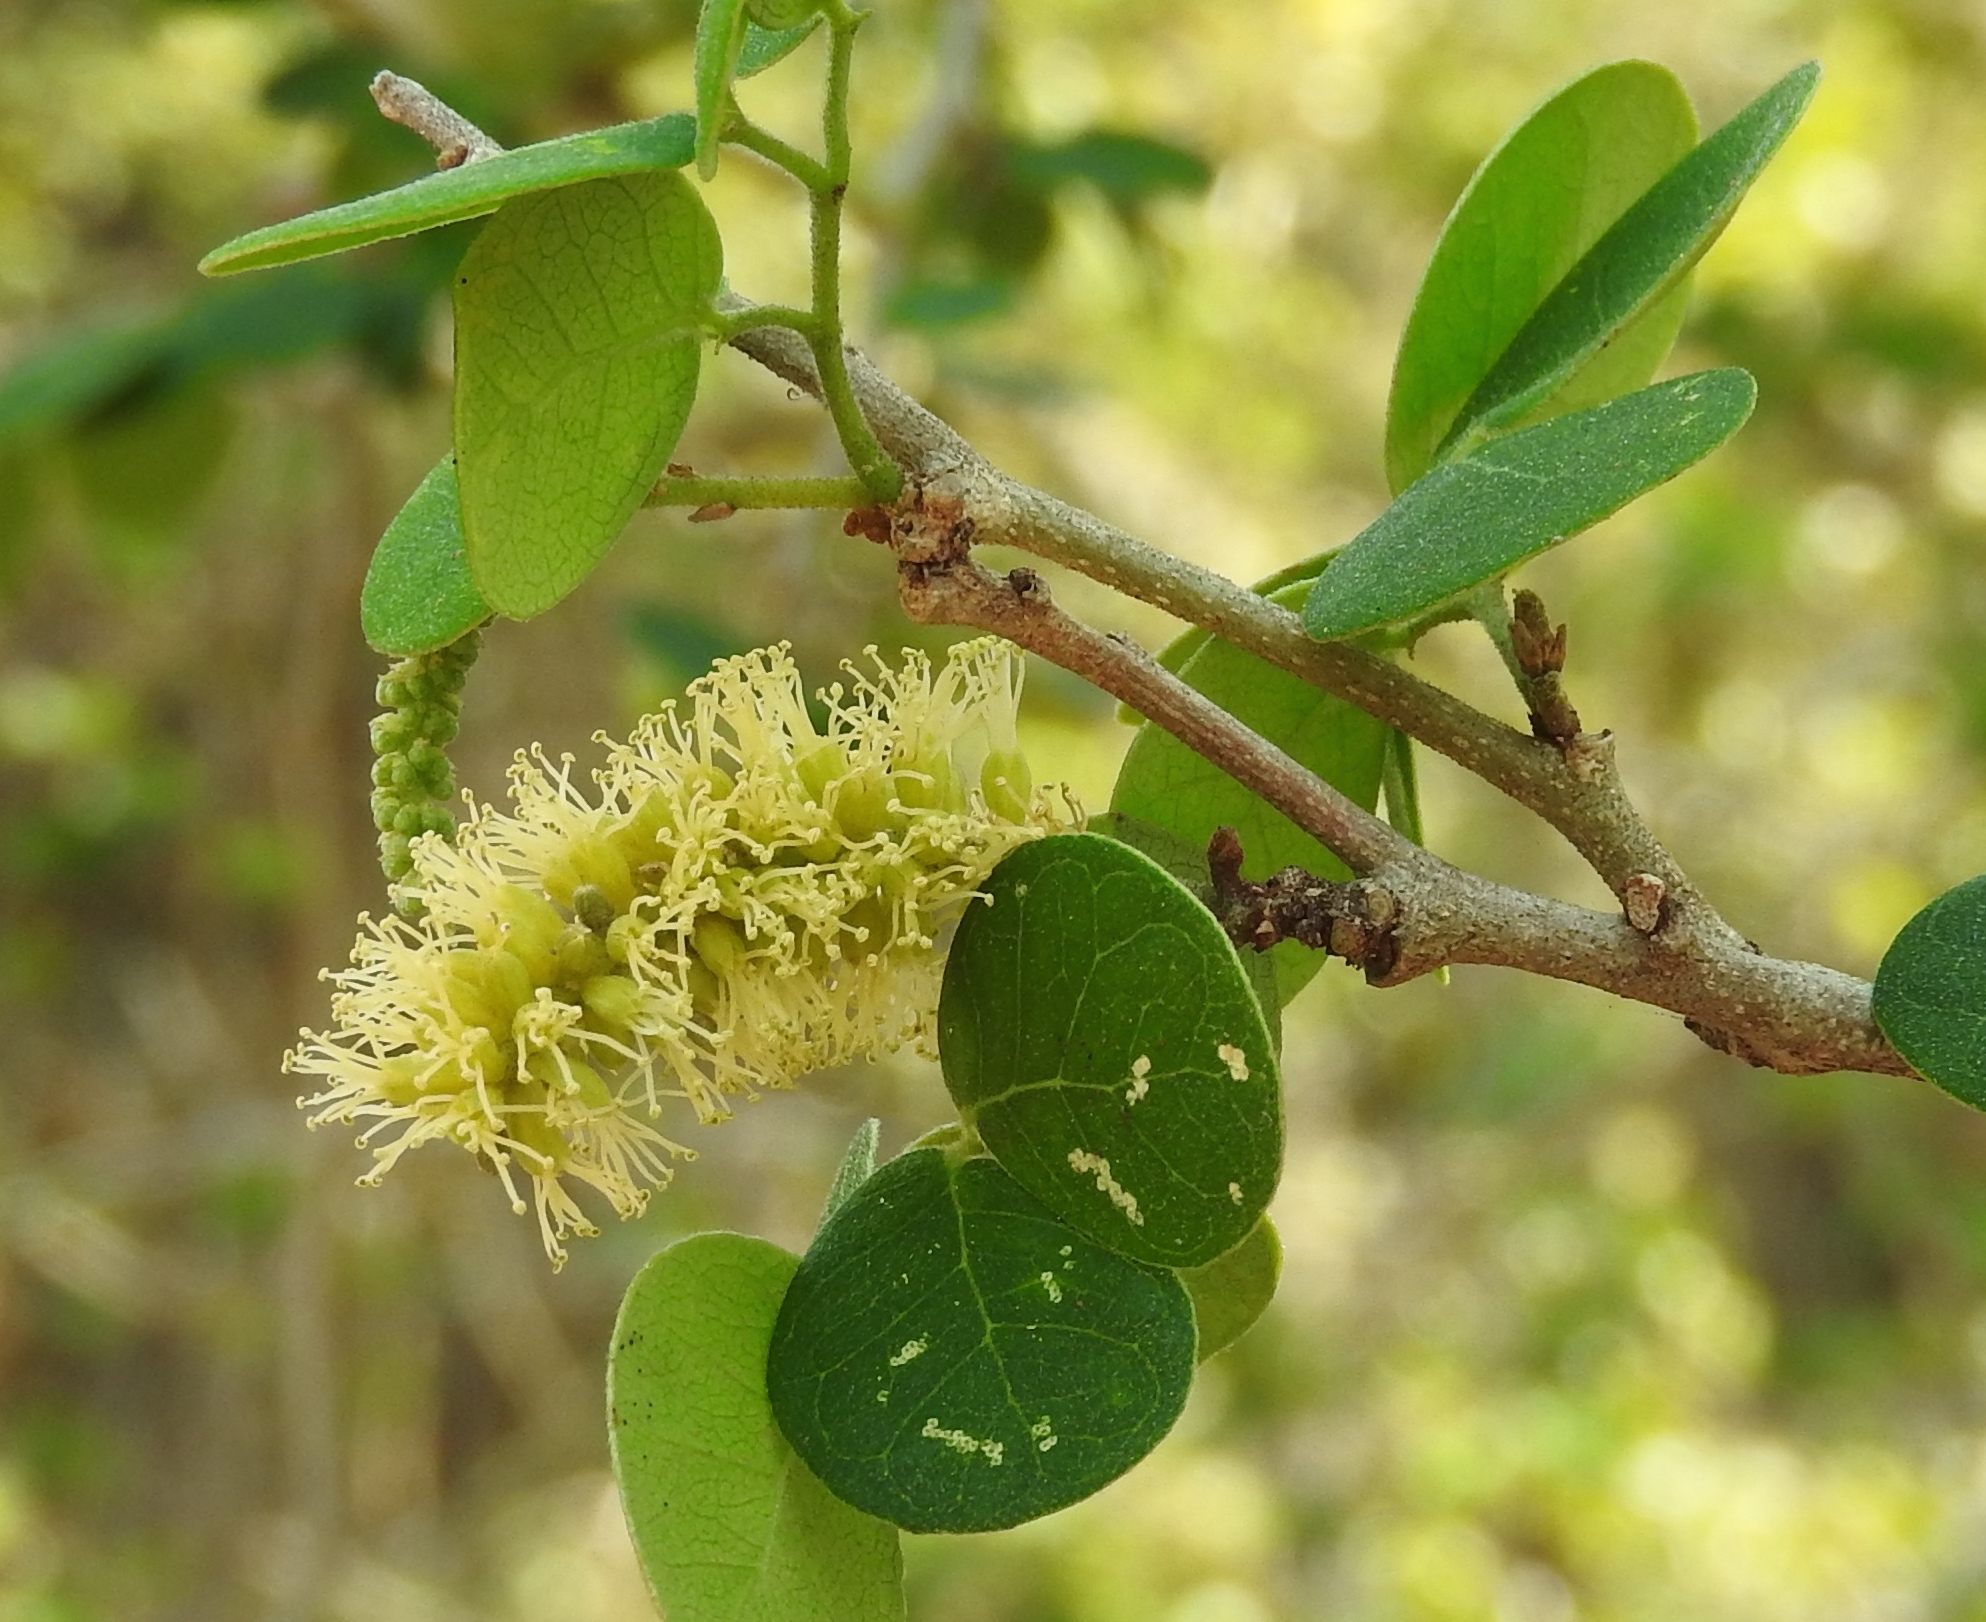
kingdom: Plantae
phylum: Tracheophyta
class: Magnoliopsida
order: Fabales
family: Fabaceae
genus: Microlobius
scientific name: Microlobius foetidus
